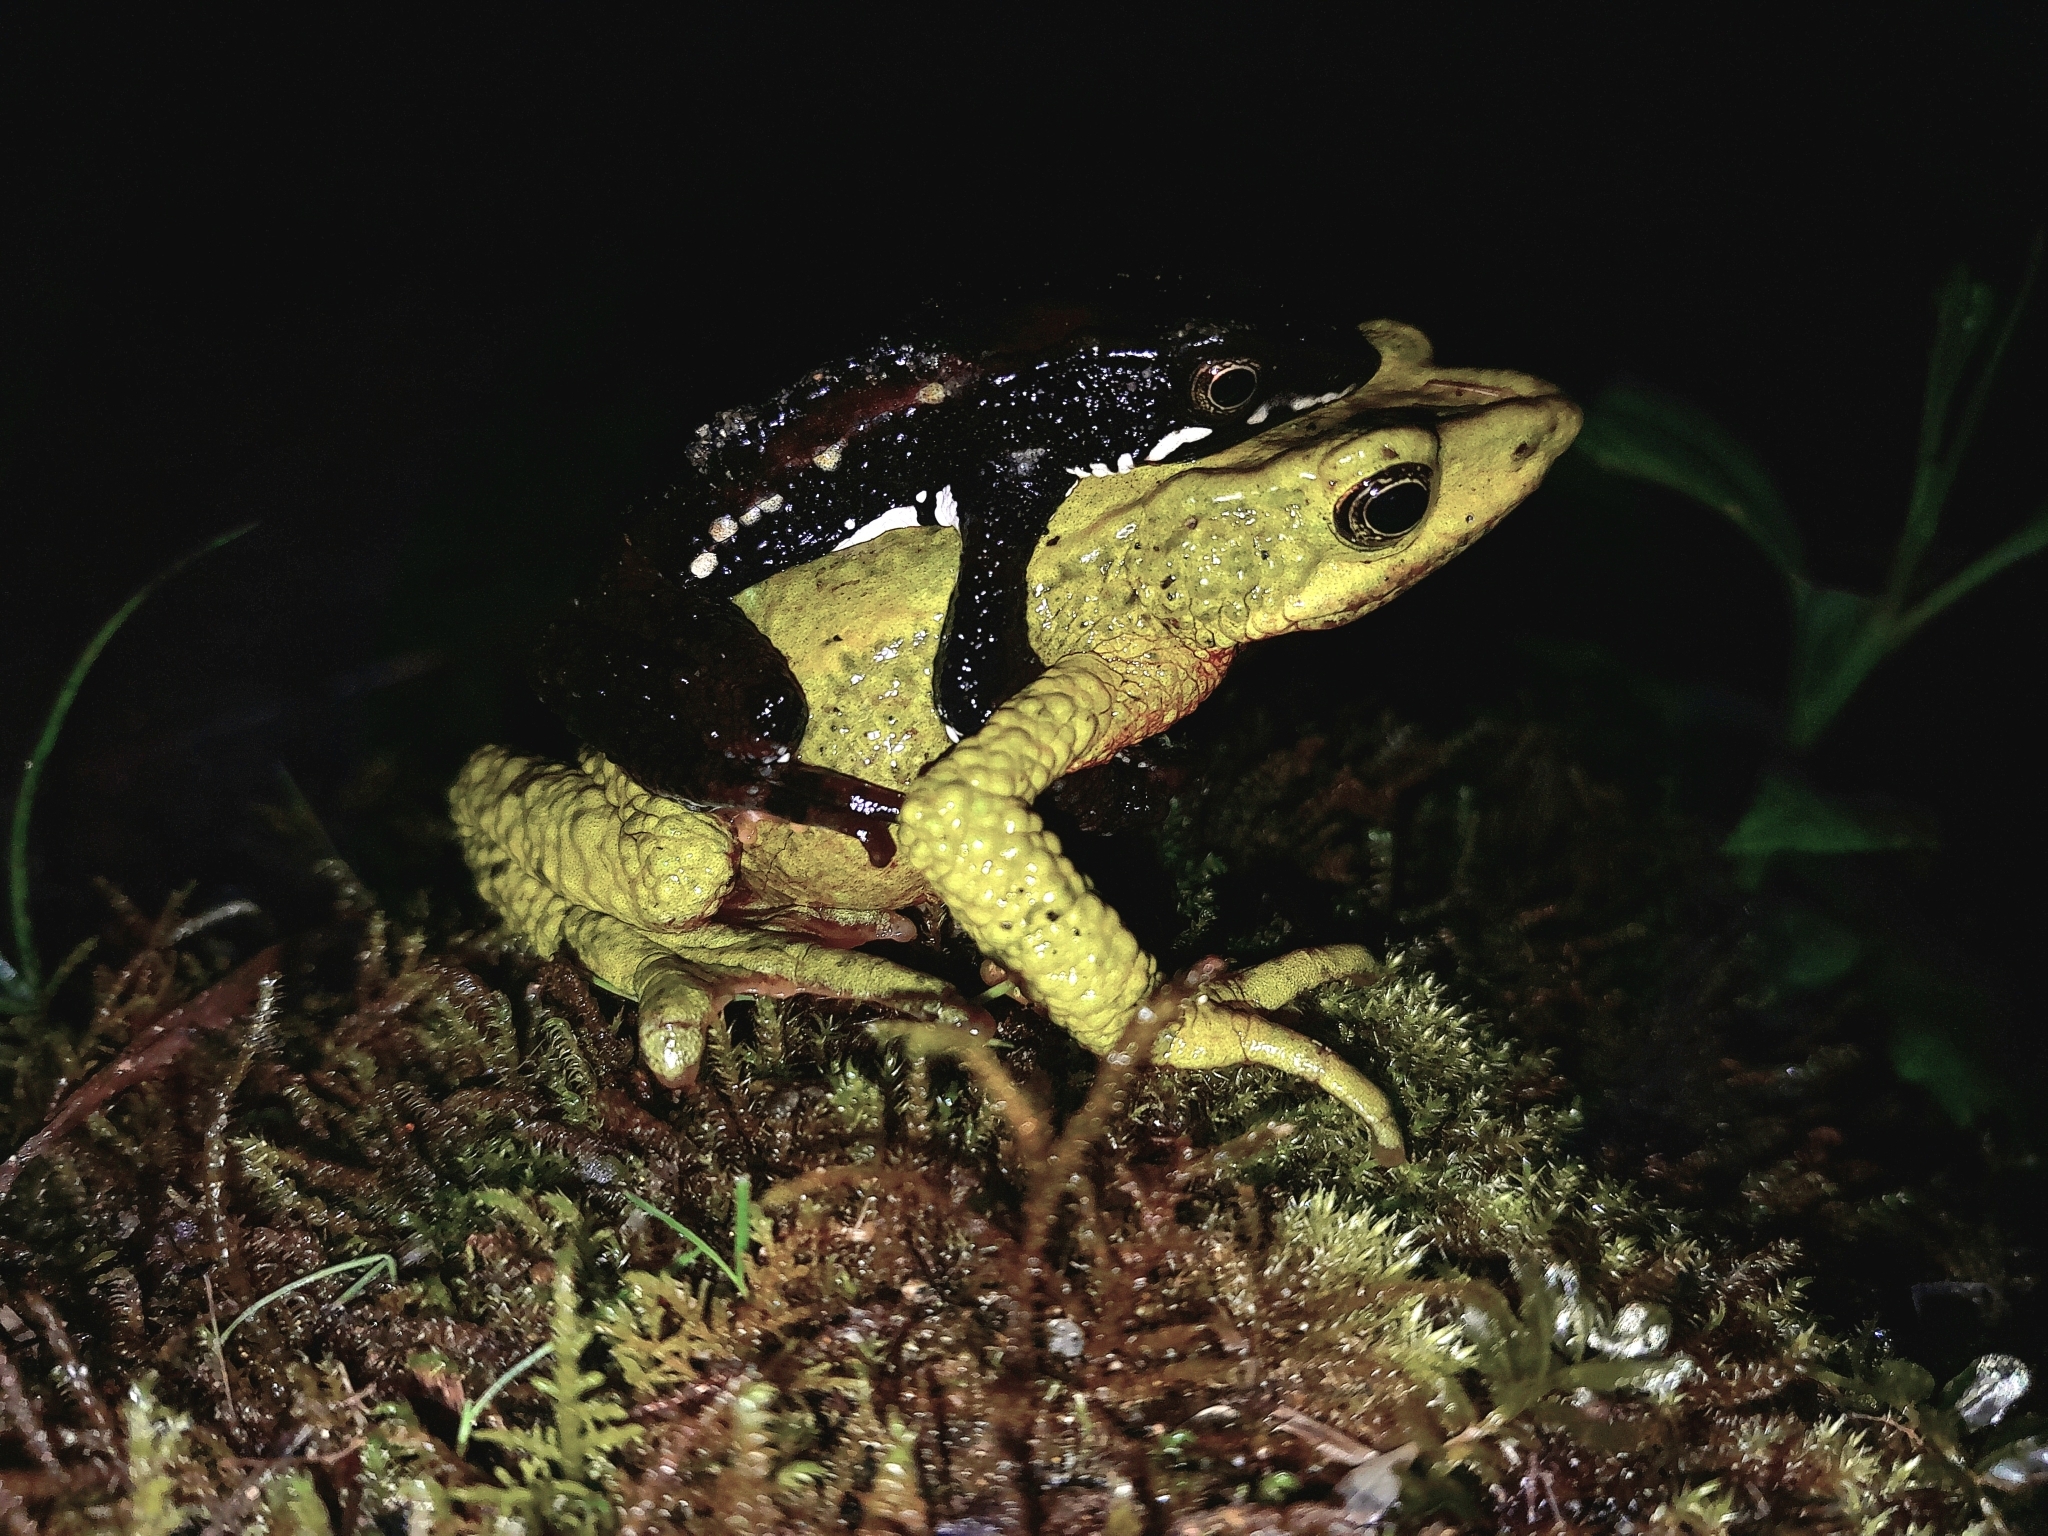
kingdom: Animalia
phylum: Chordata
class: Amphibia
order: Anura
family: Bufonidae
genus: Atelopus
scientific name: Atelopus laetissimus
